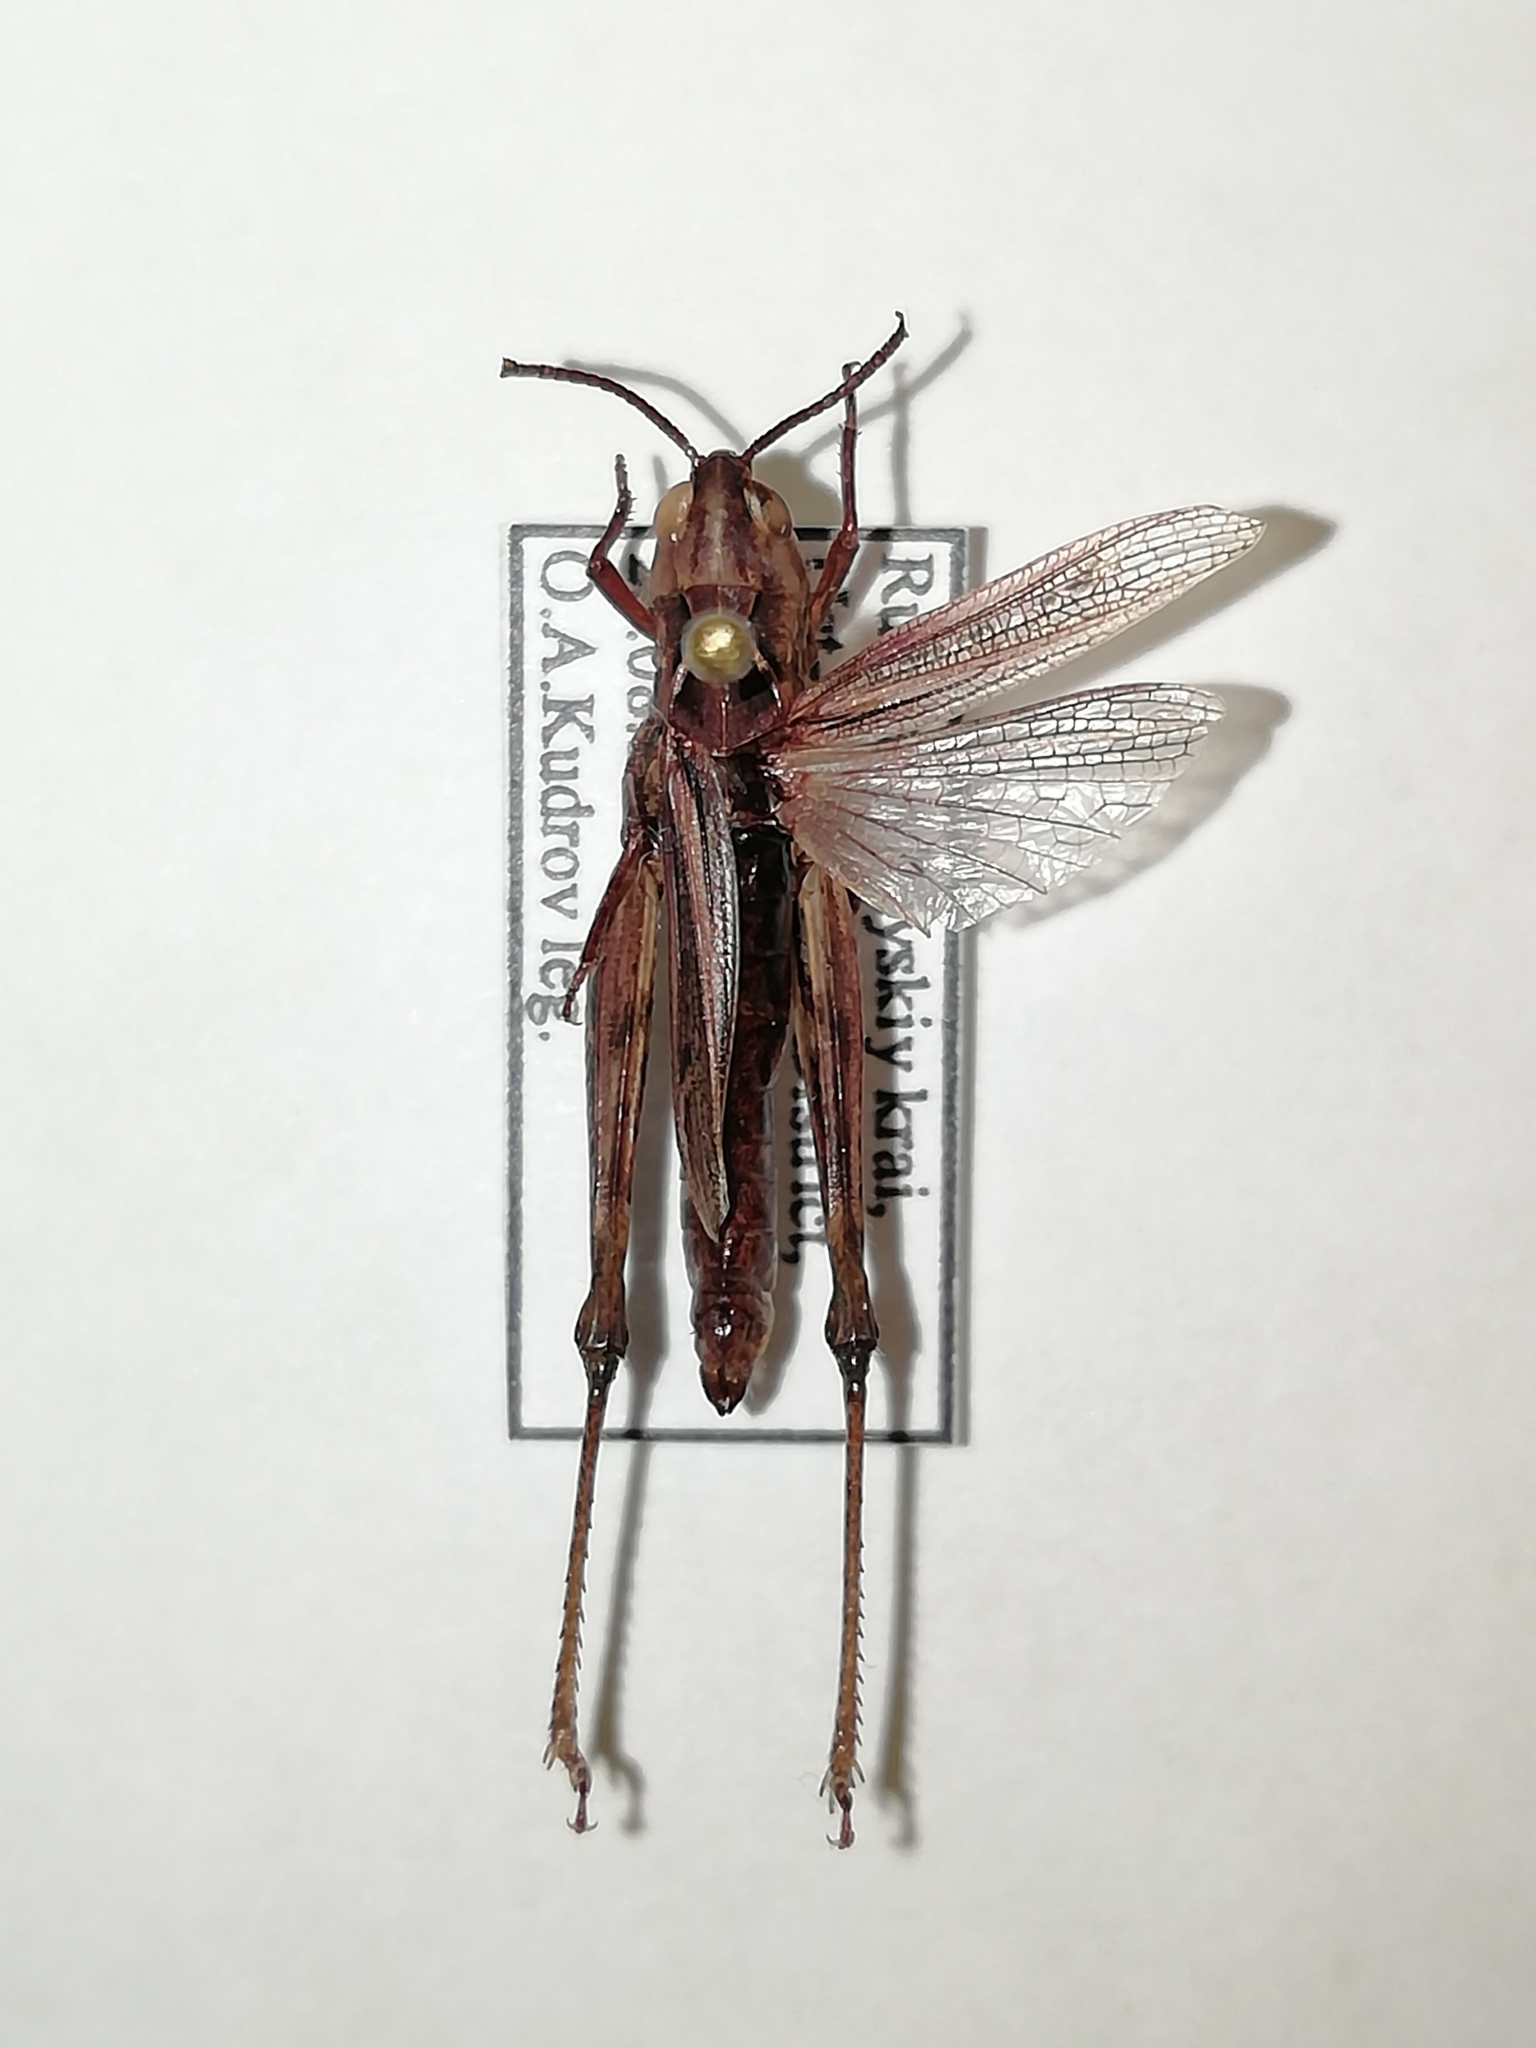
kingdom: Animalia
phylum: Arthropoda
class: Insecta
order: Orthoptera
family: Acrididae
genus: Chorthippus
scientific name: Chorthippus dubius
